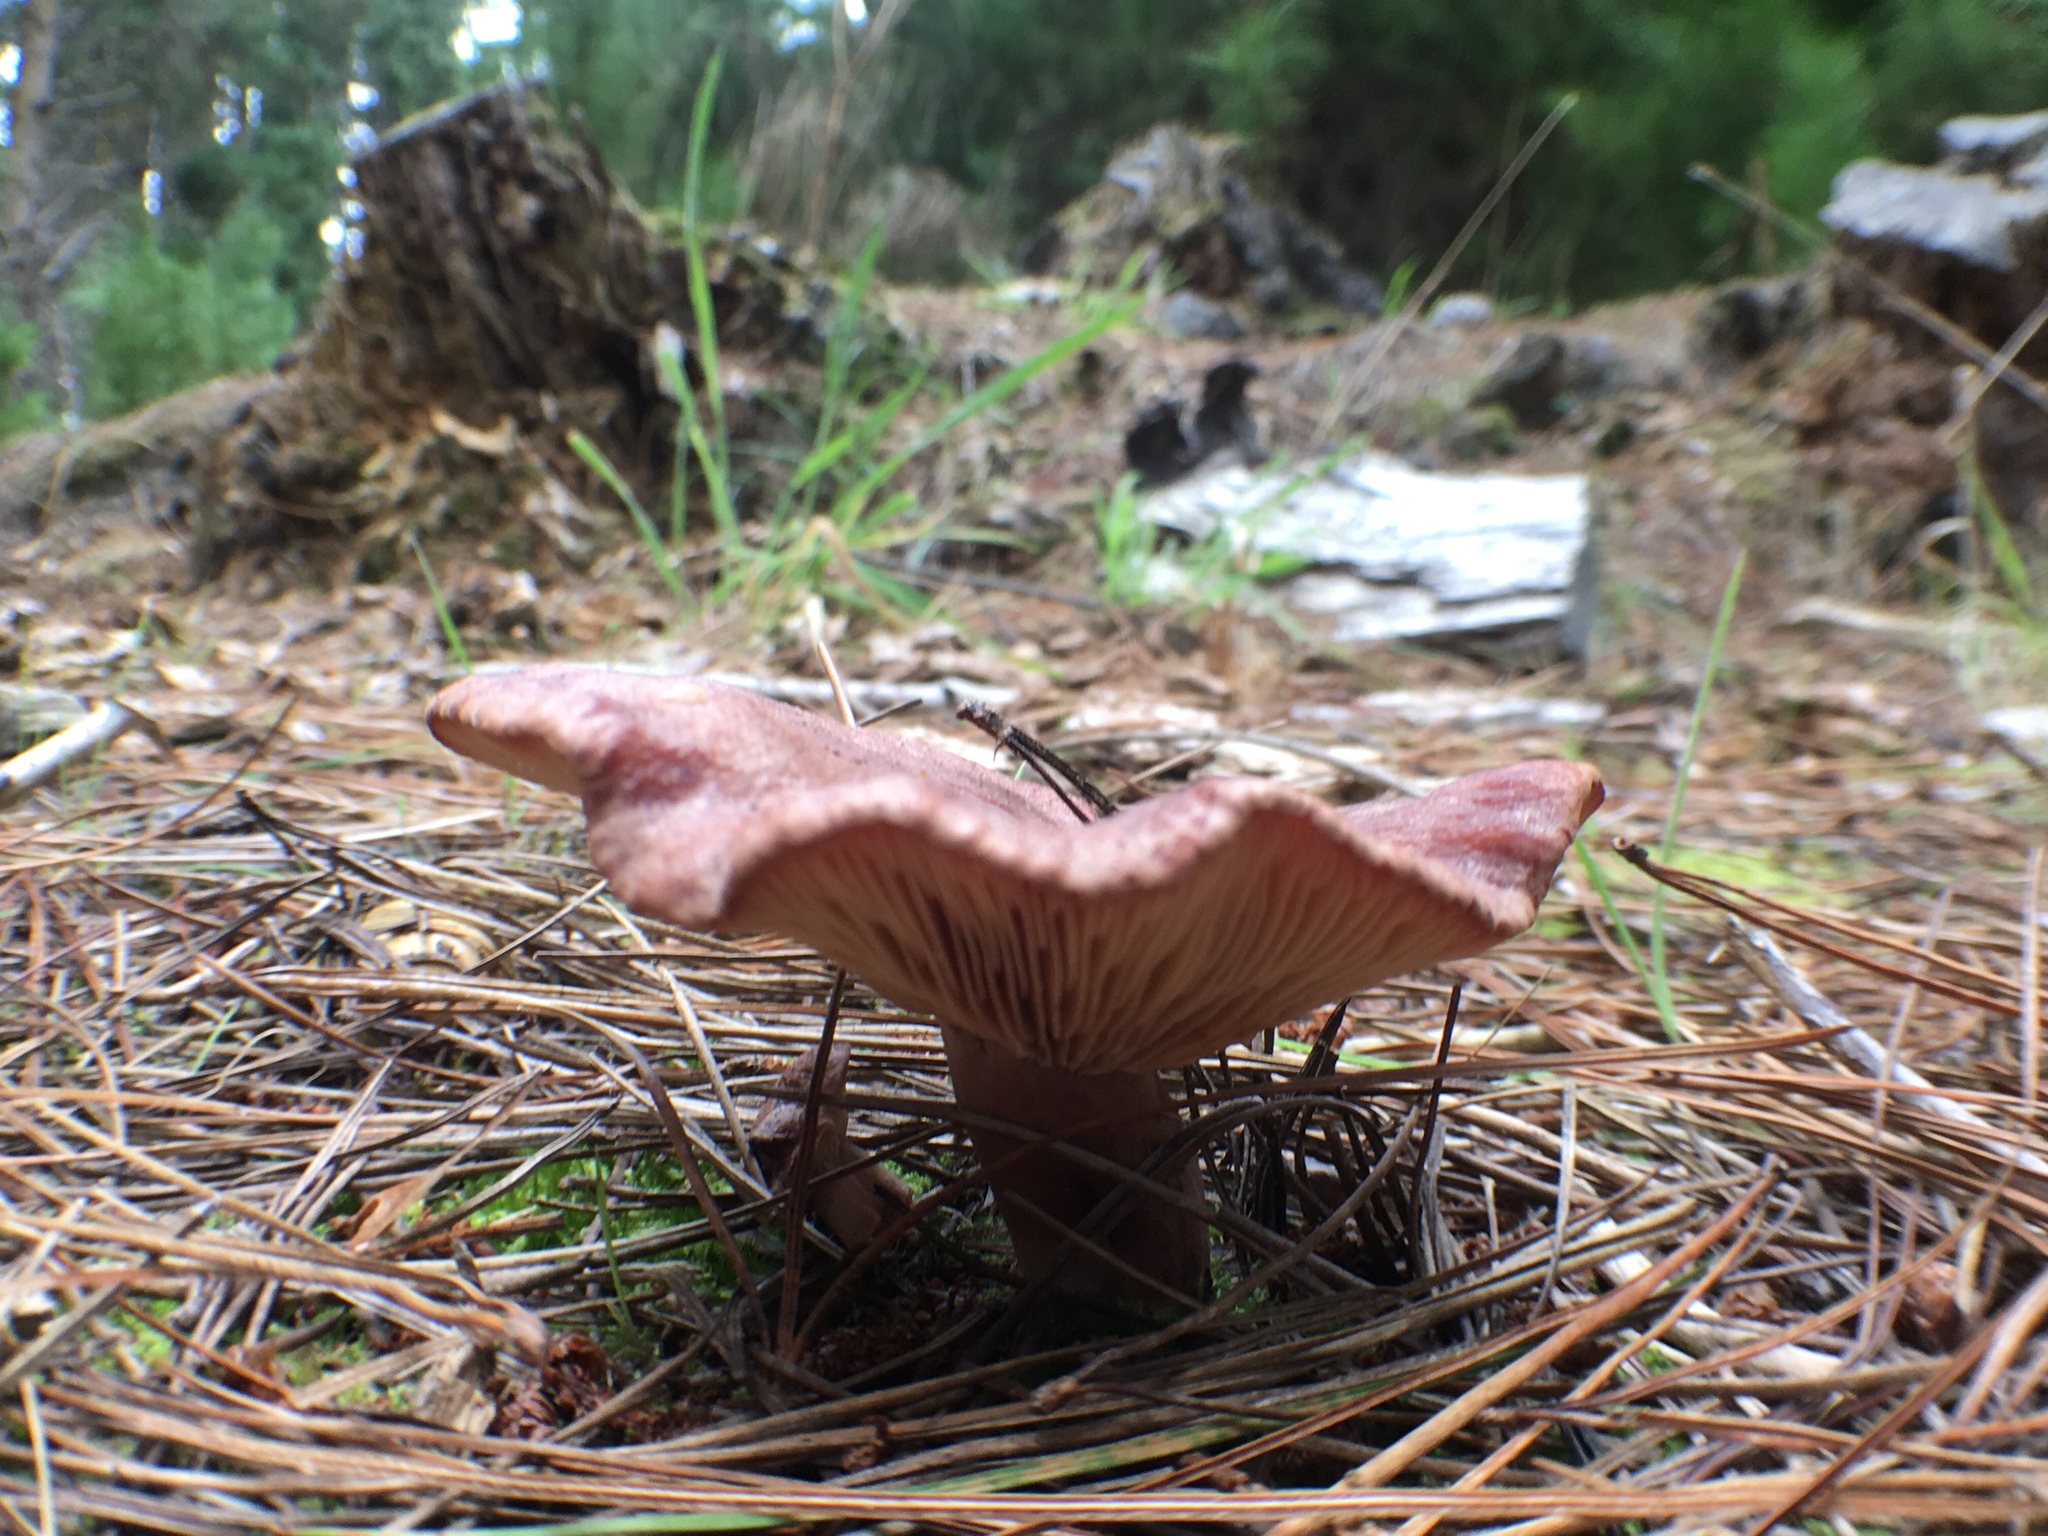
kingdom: Fungi
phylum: Basidiomycota
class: Agaricomycetes
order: Russulales
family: Russulaceae
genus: Lactarius
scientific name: Lactarius rufus
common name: Rufous milk-cap
